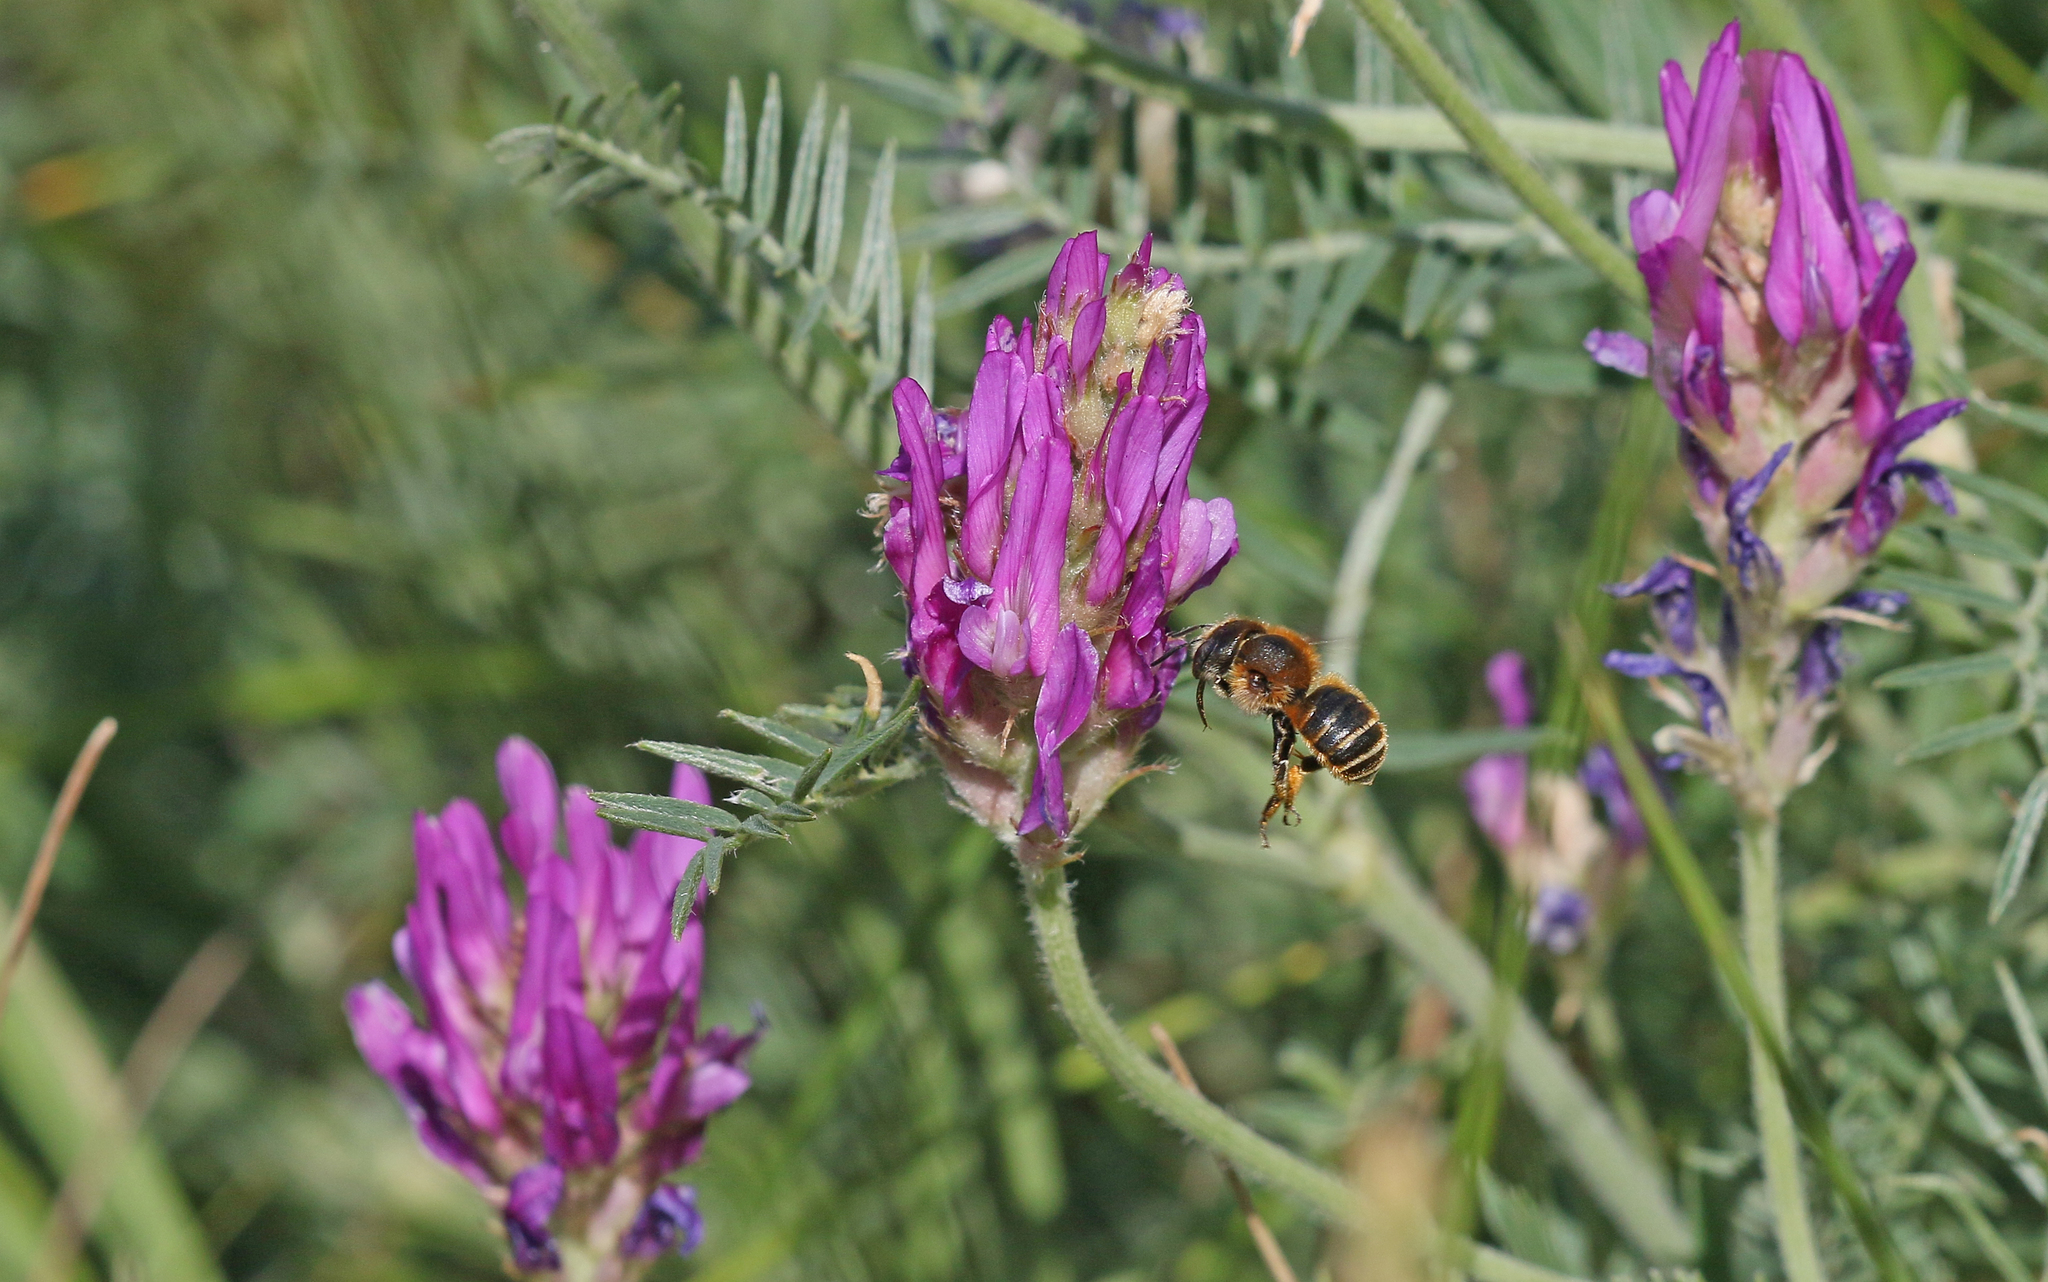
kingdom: Animalia
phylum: Arthropoda
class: Insecta
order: Hymenoptera
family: Megachilidae
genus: Osmia
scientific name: Osmia aurulenta
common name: Gold-fringed mason bee
